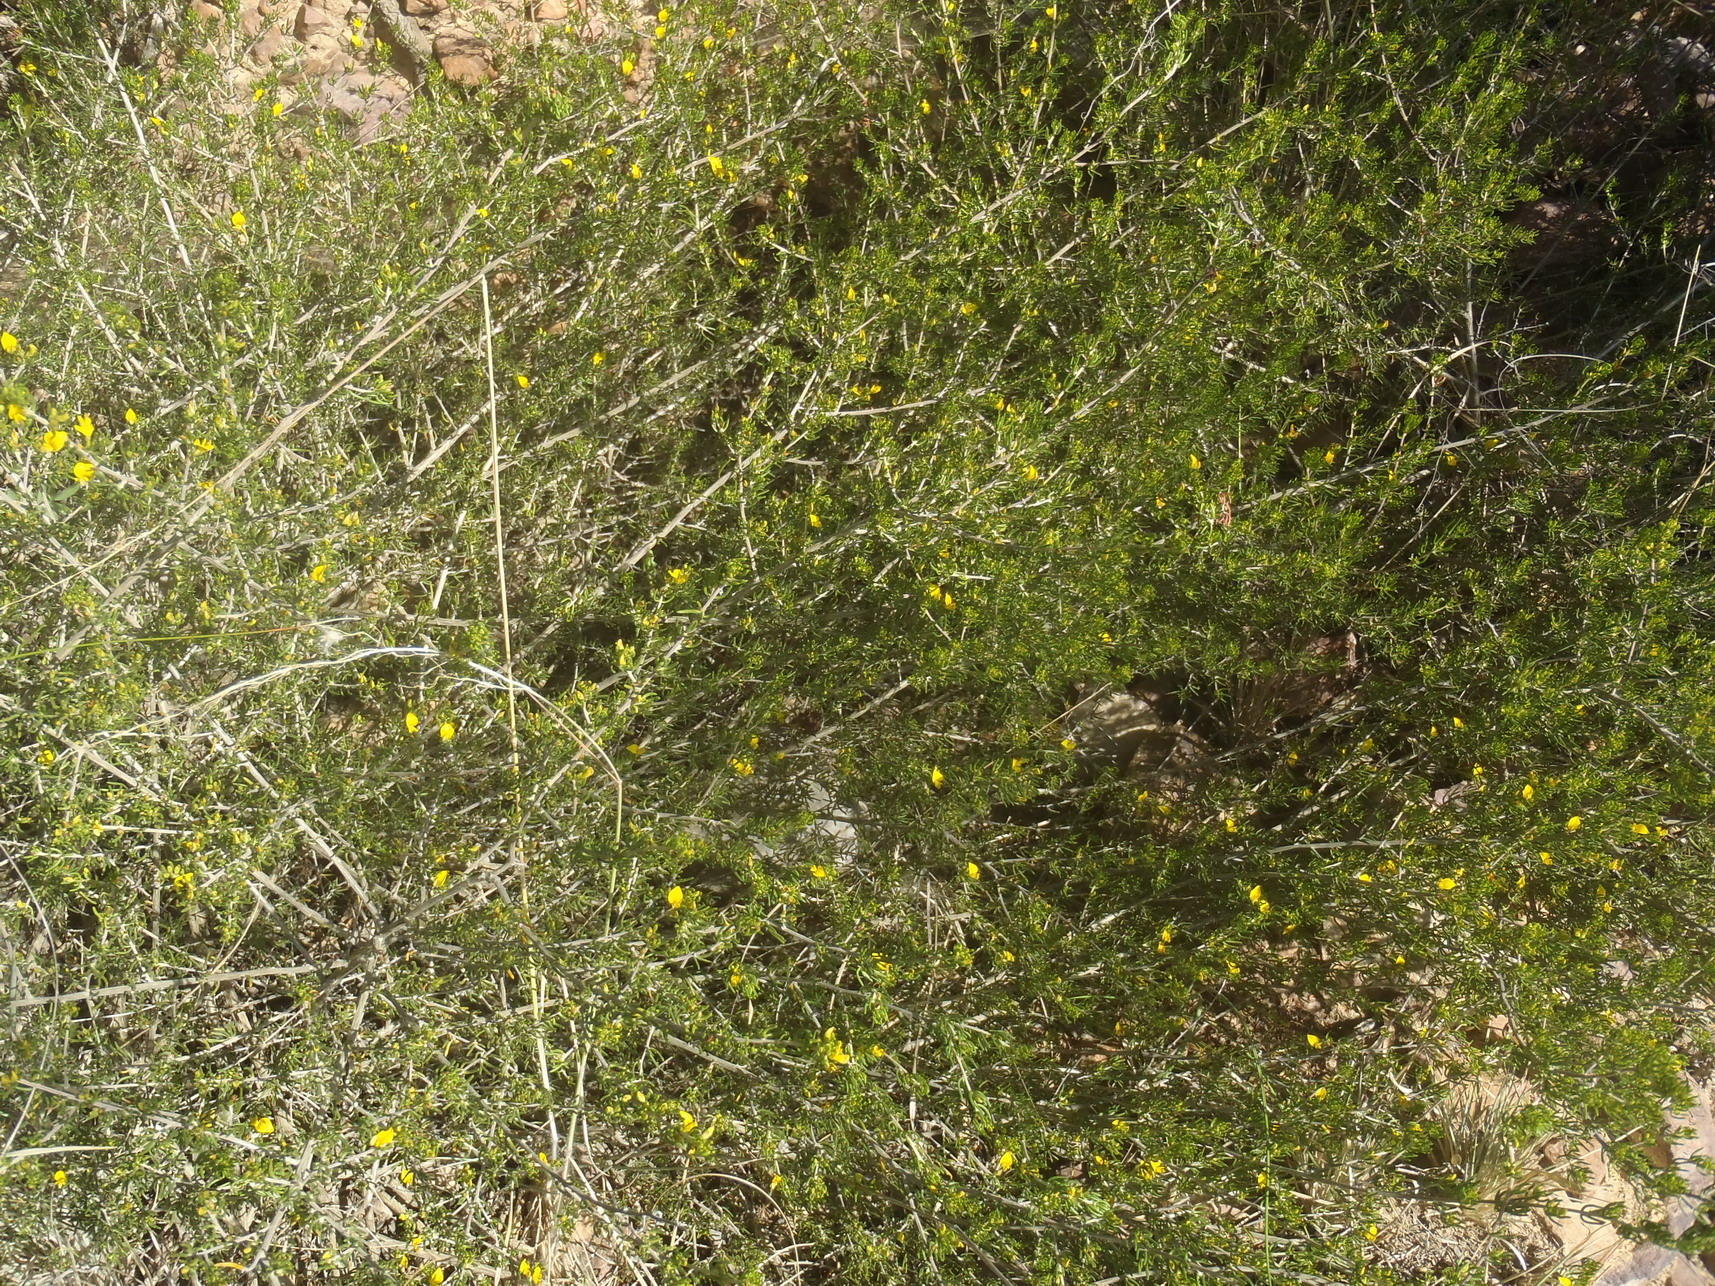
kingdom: Plantae
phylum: Tracheophyta
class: Magnoliopsida
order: Fabales
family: Fabaceae
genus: Aspalathus
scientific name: Aspalathus subtingens
